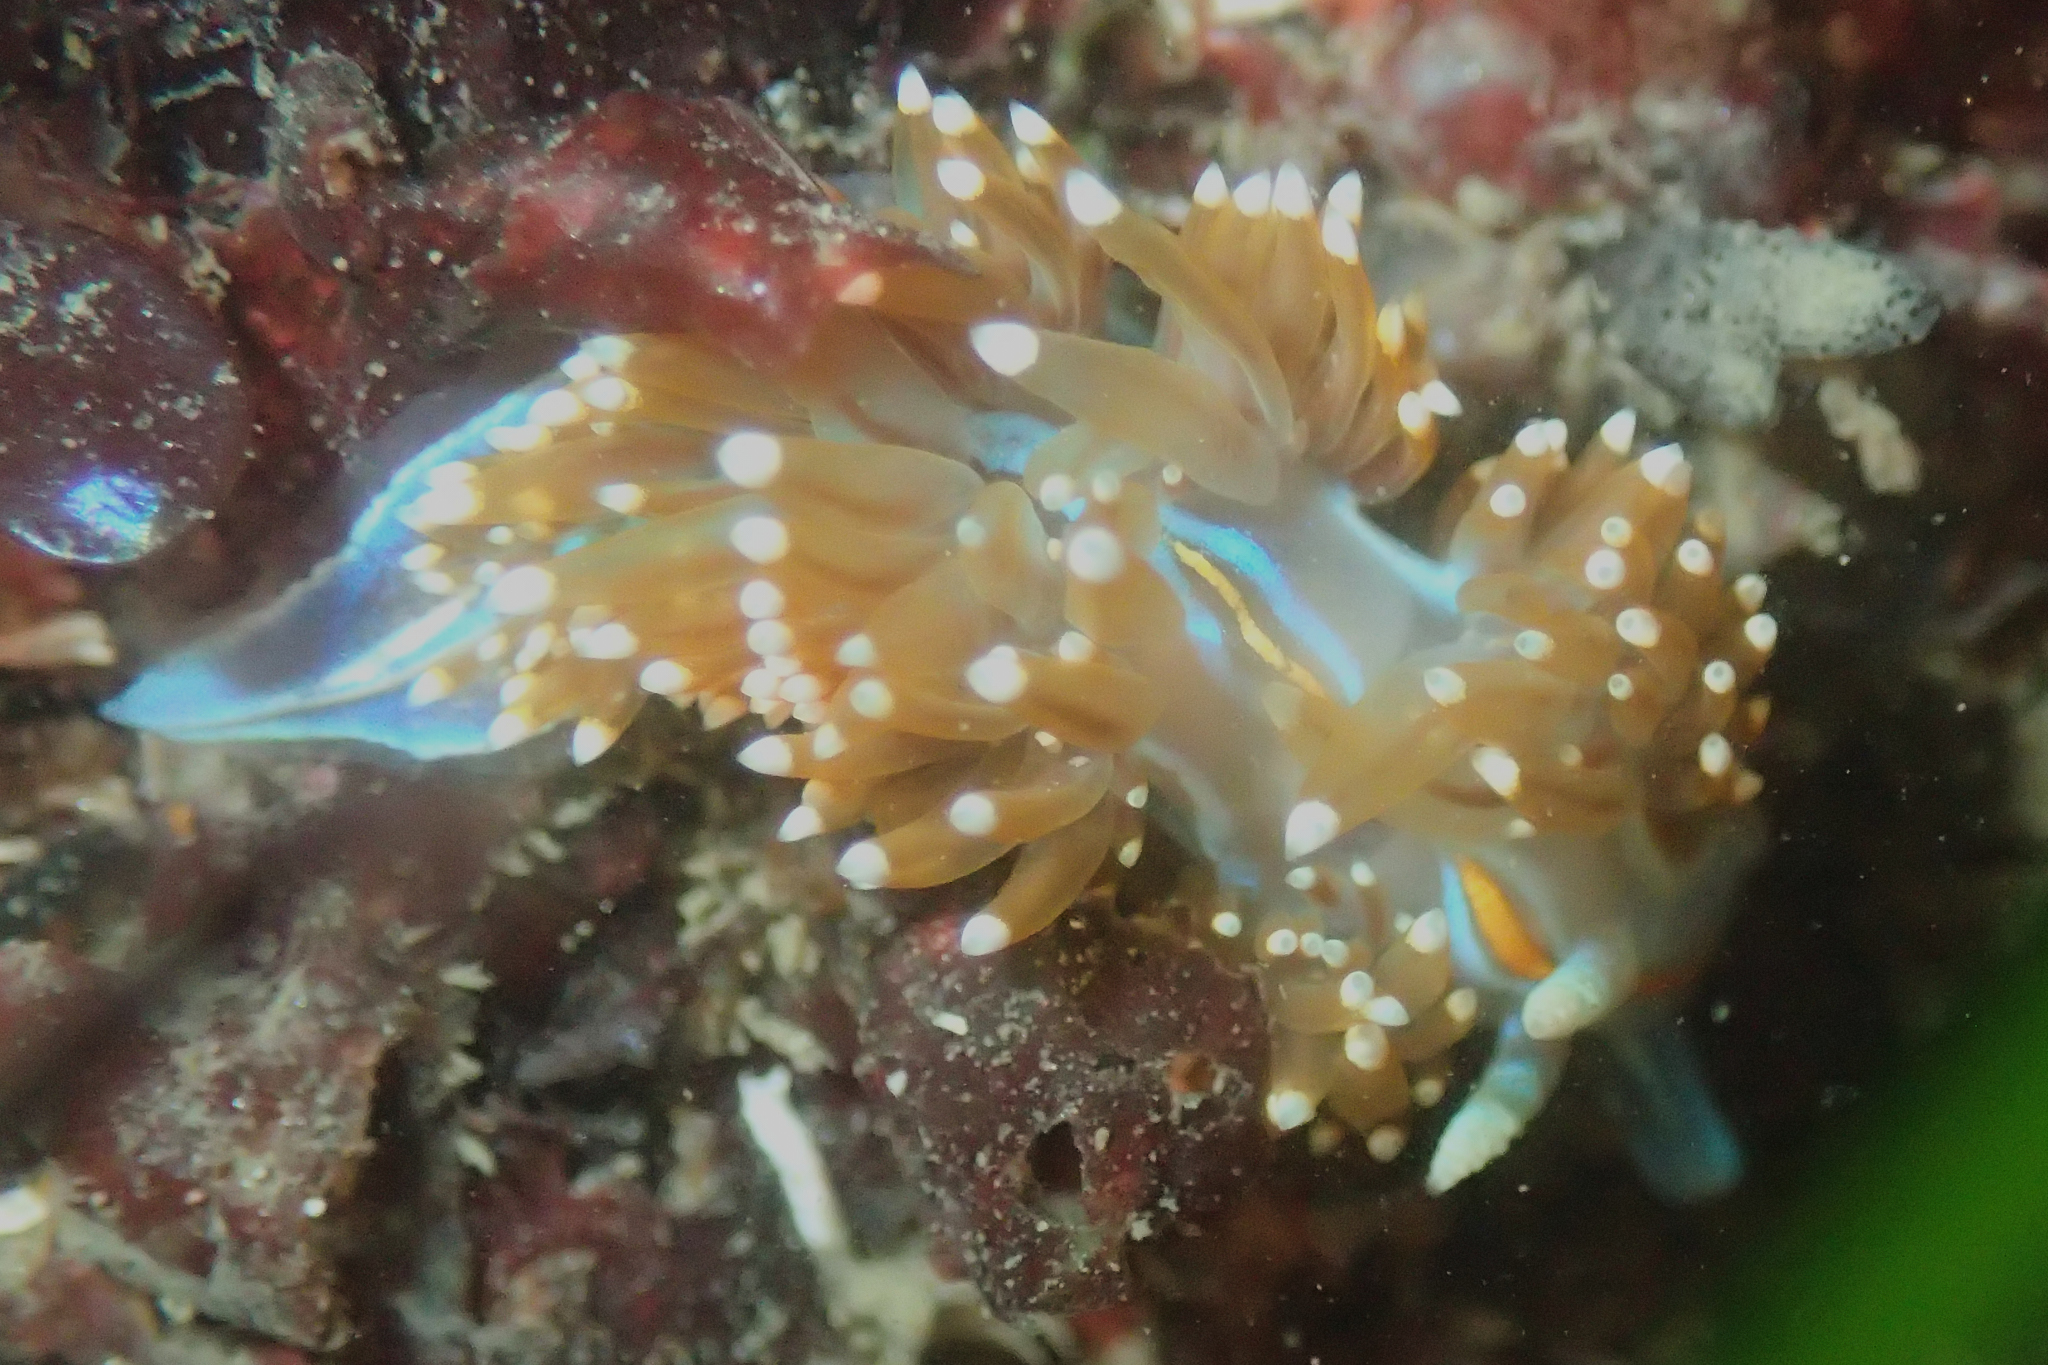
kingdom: Animalia
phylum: Mollusca
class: Gastropoda
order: Nudibranchia
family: Myrrhinidae
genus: Hermissenda
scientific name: Hermissenda opalescens
